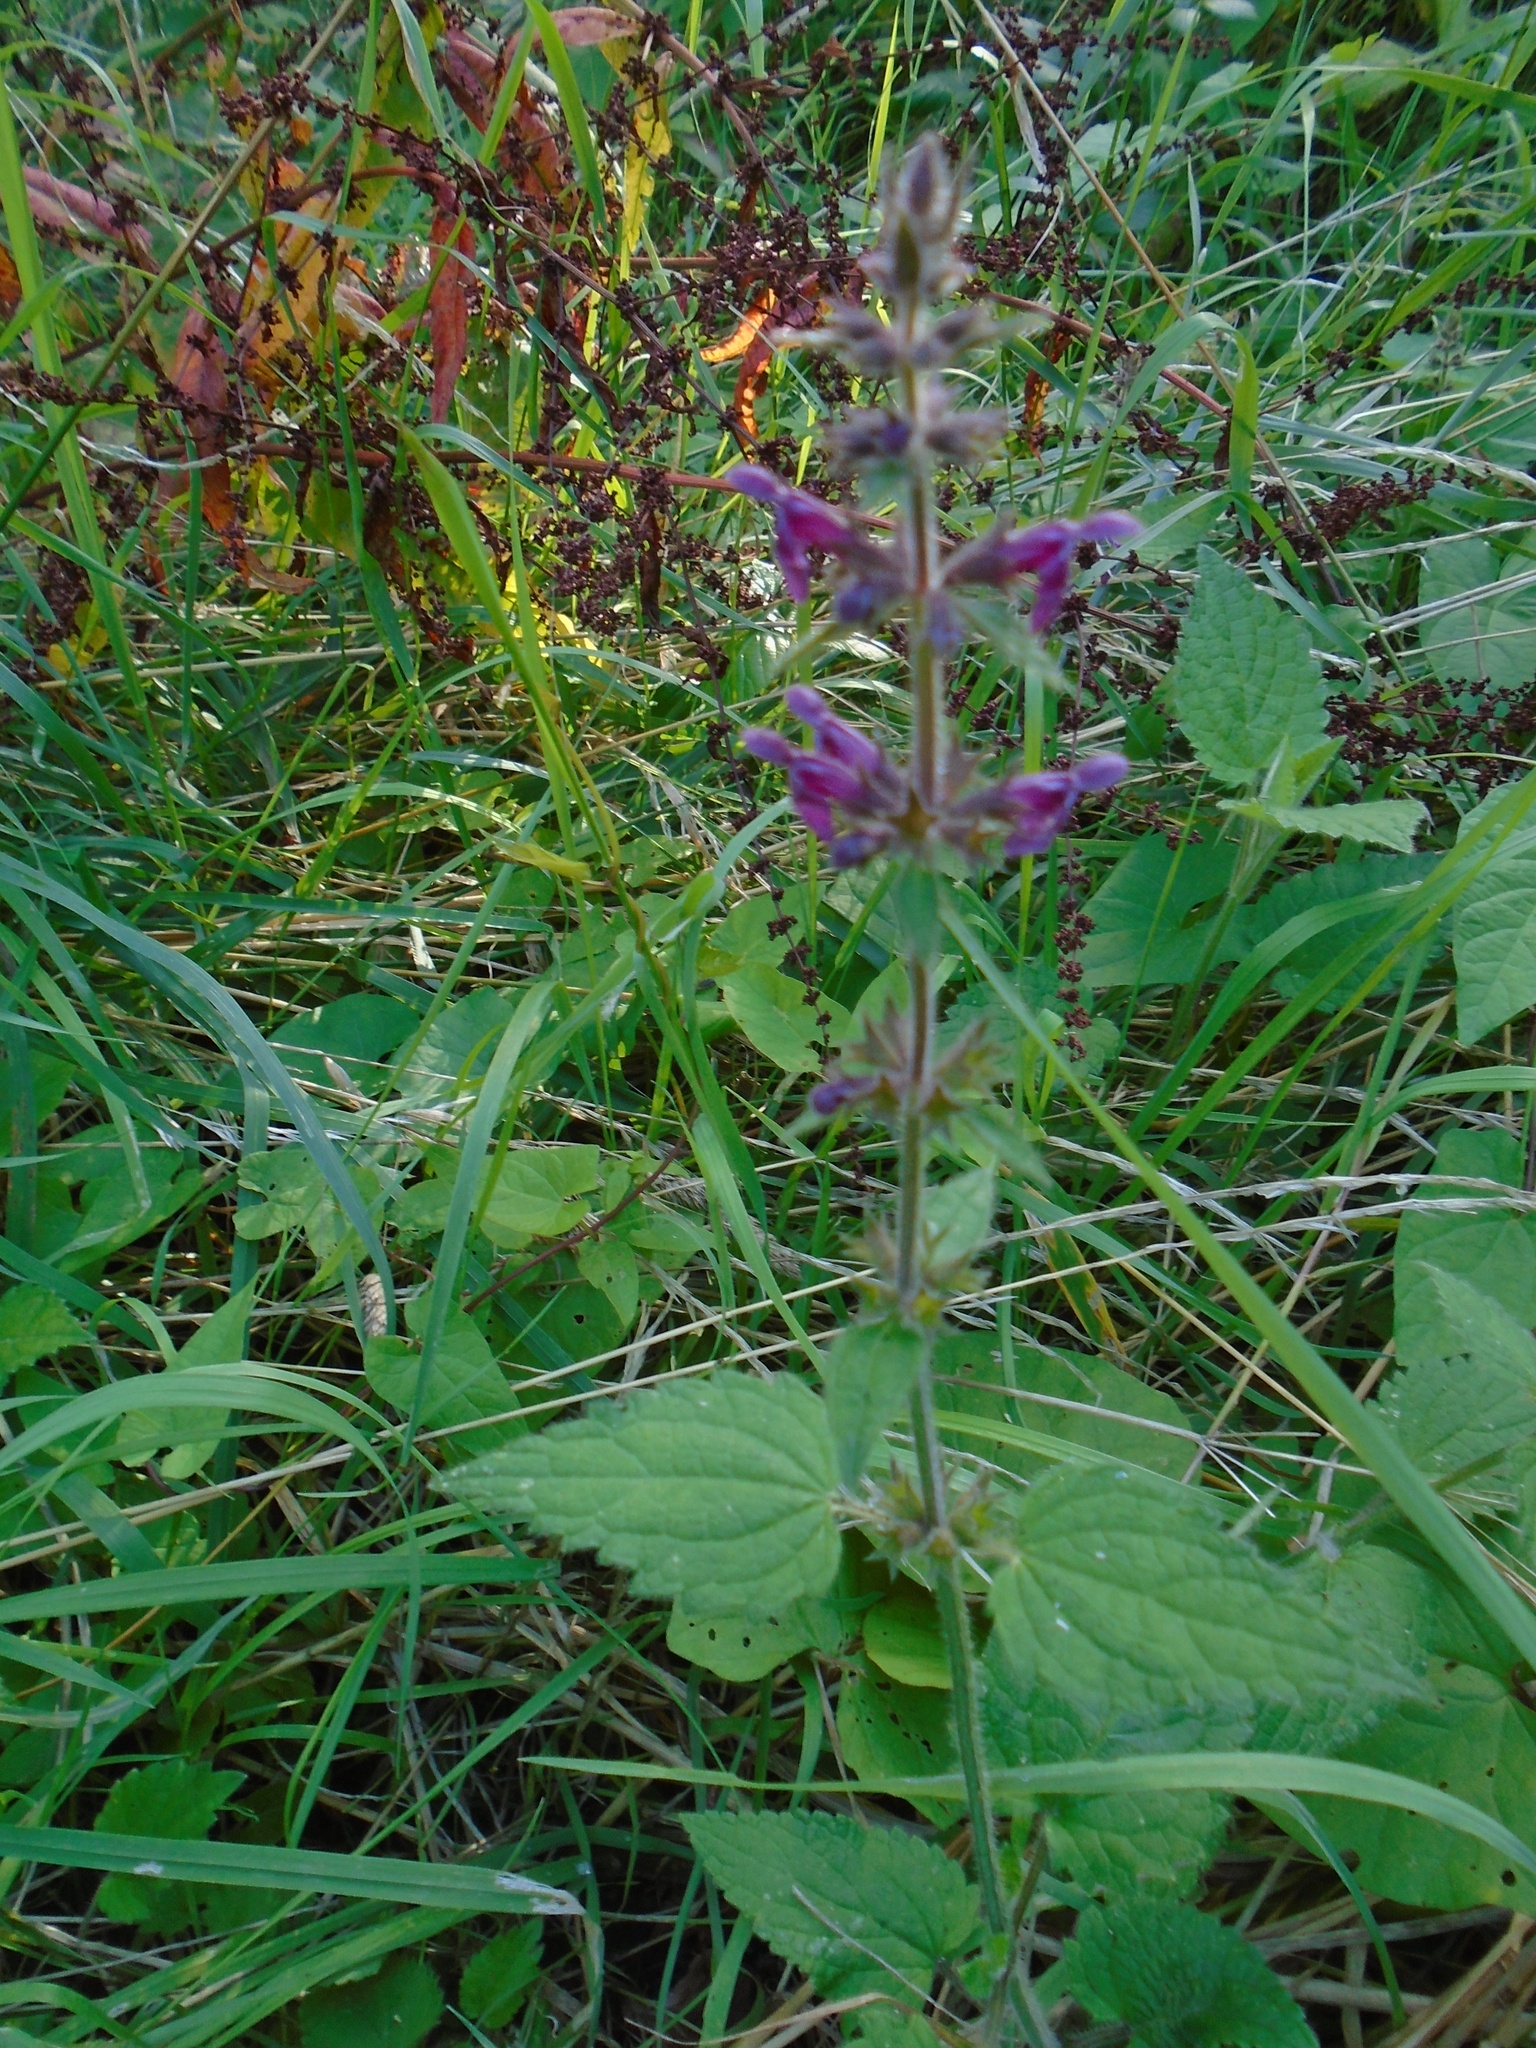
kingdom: Plantae
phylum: Tracheophyta
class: Magnoliopsida
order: Lamiales
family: Lamiaceae
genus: Stachys
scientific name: Stachys sylvatica
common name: Hedge woundwort
